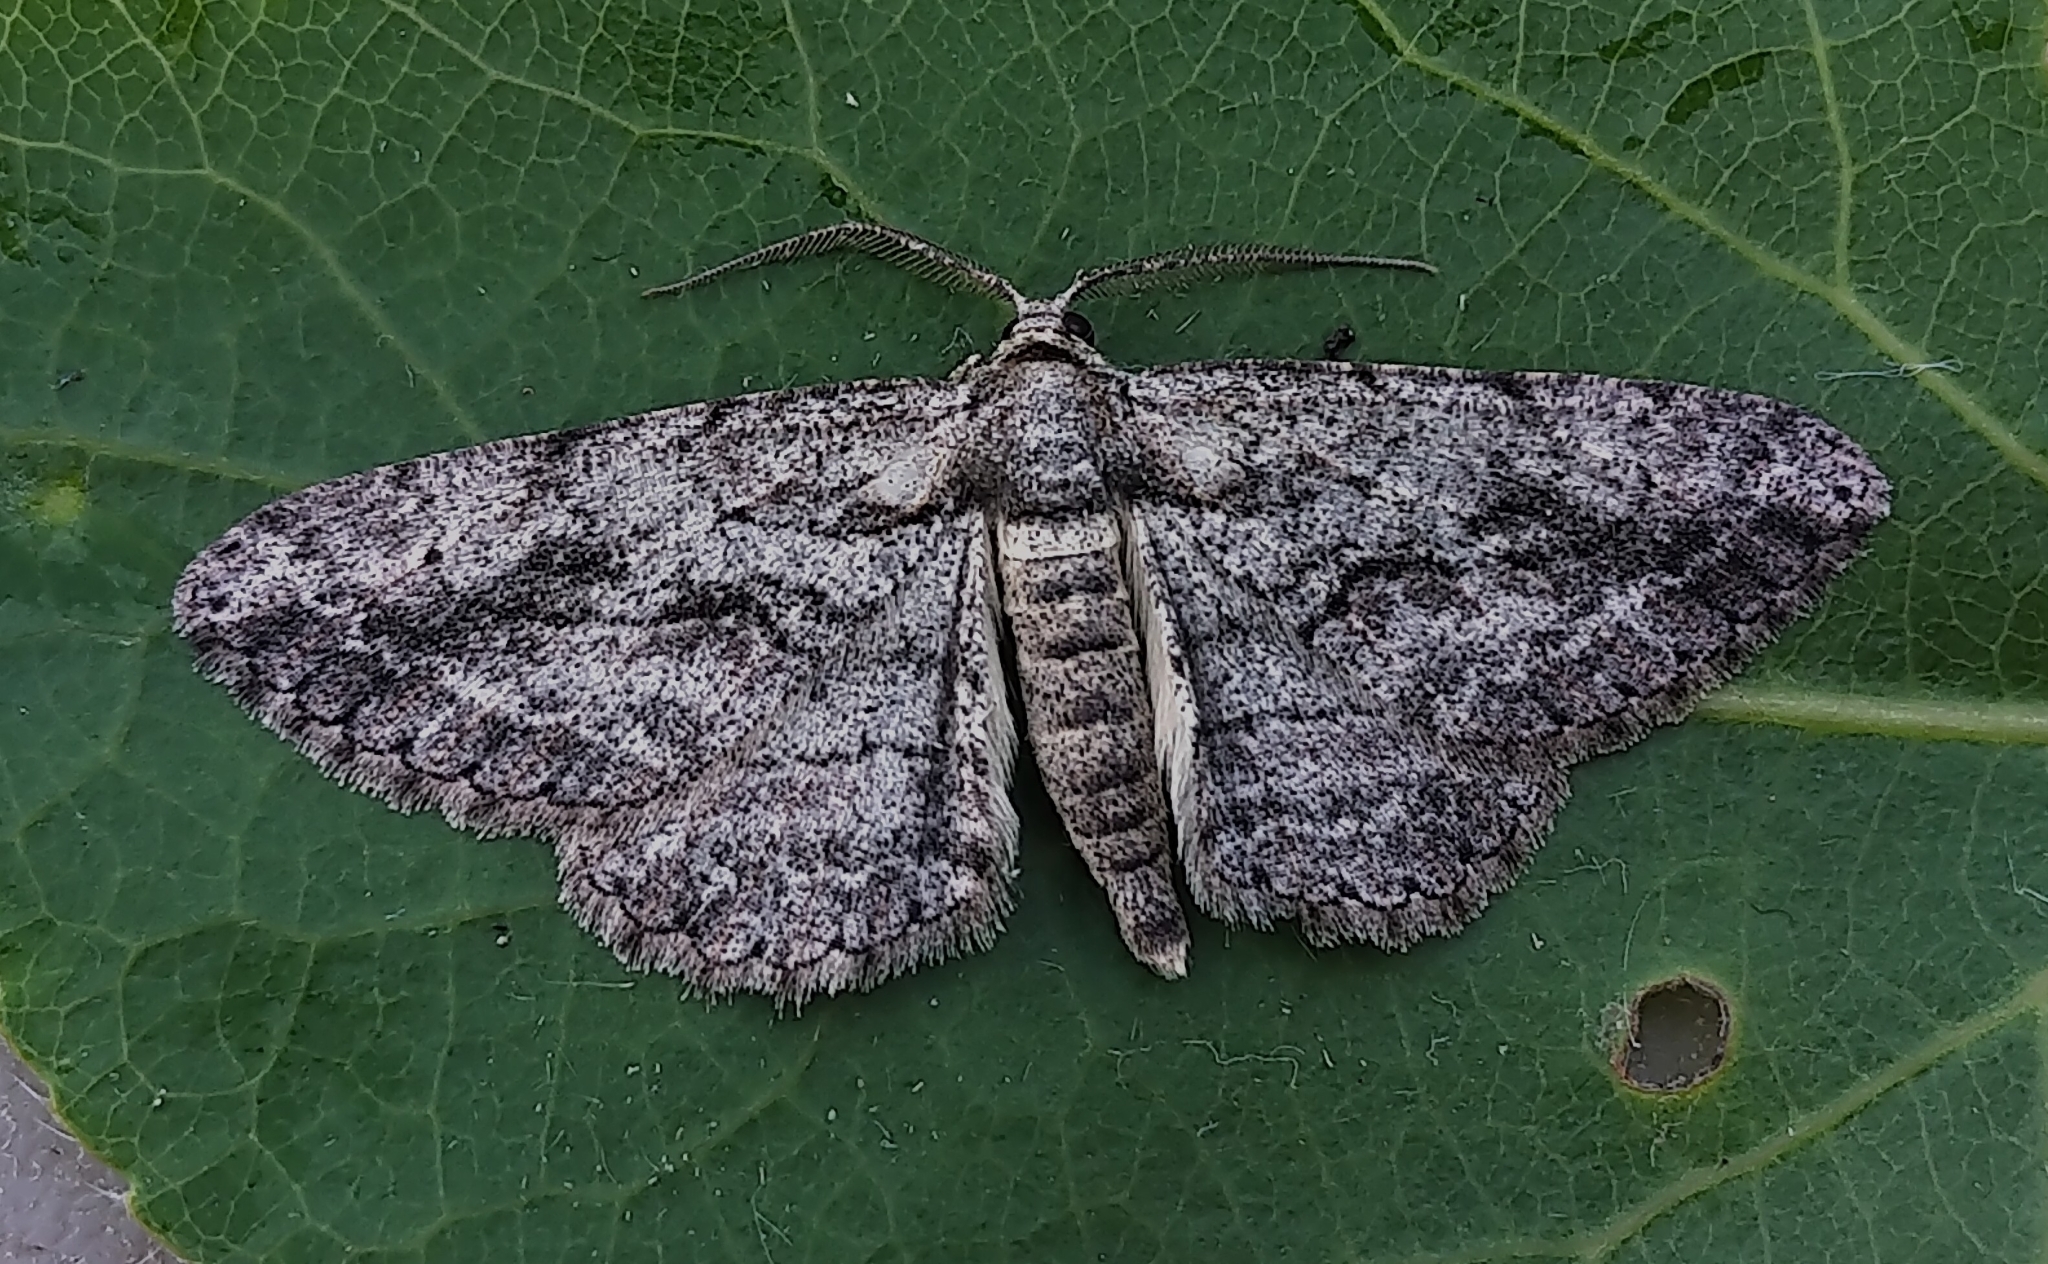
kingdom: Animalia
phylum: Arthropoda
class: Insecta
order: Lepidoptera
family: Geometridae
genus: Anavitrinella
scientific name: Anavitrinella pampinaria
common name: Common gray
